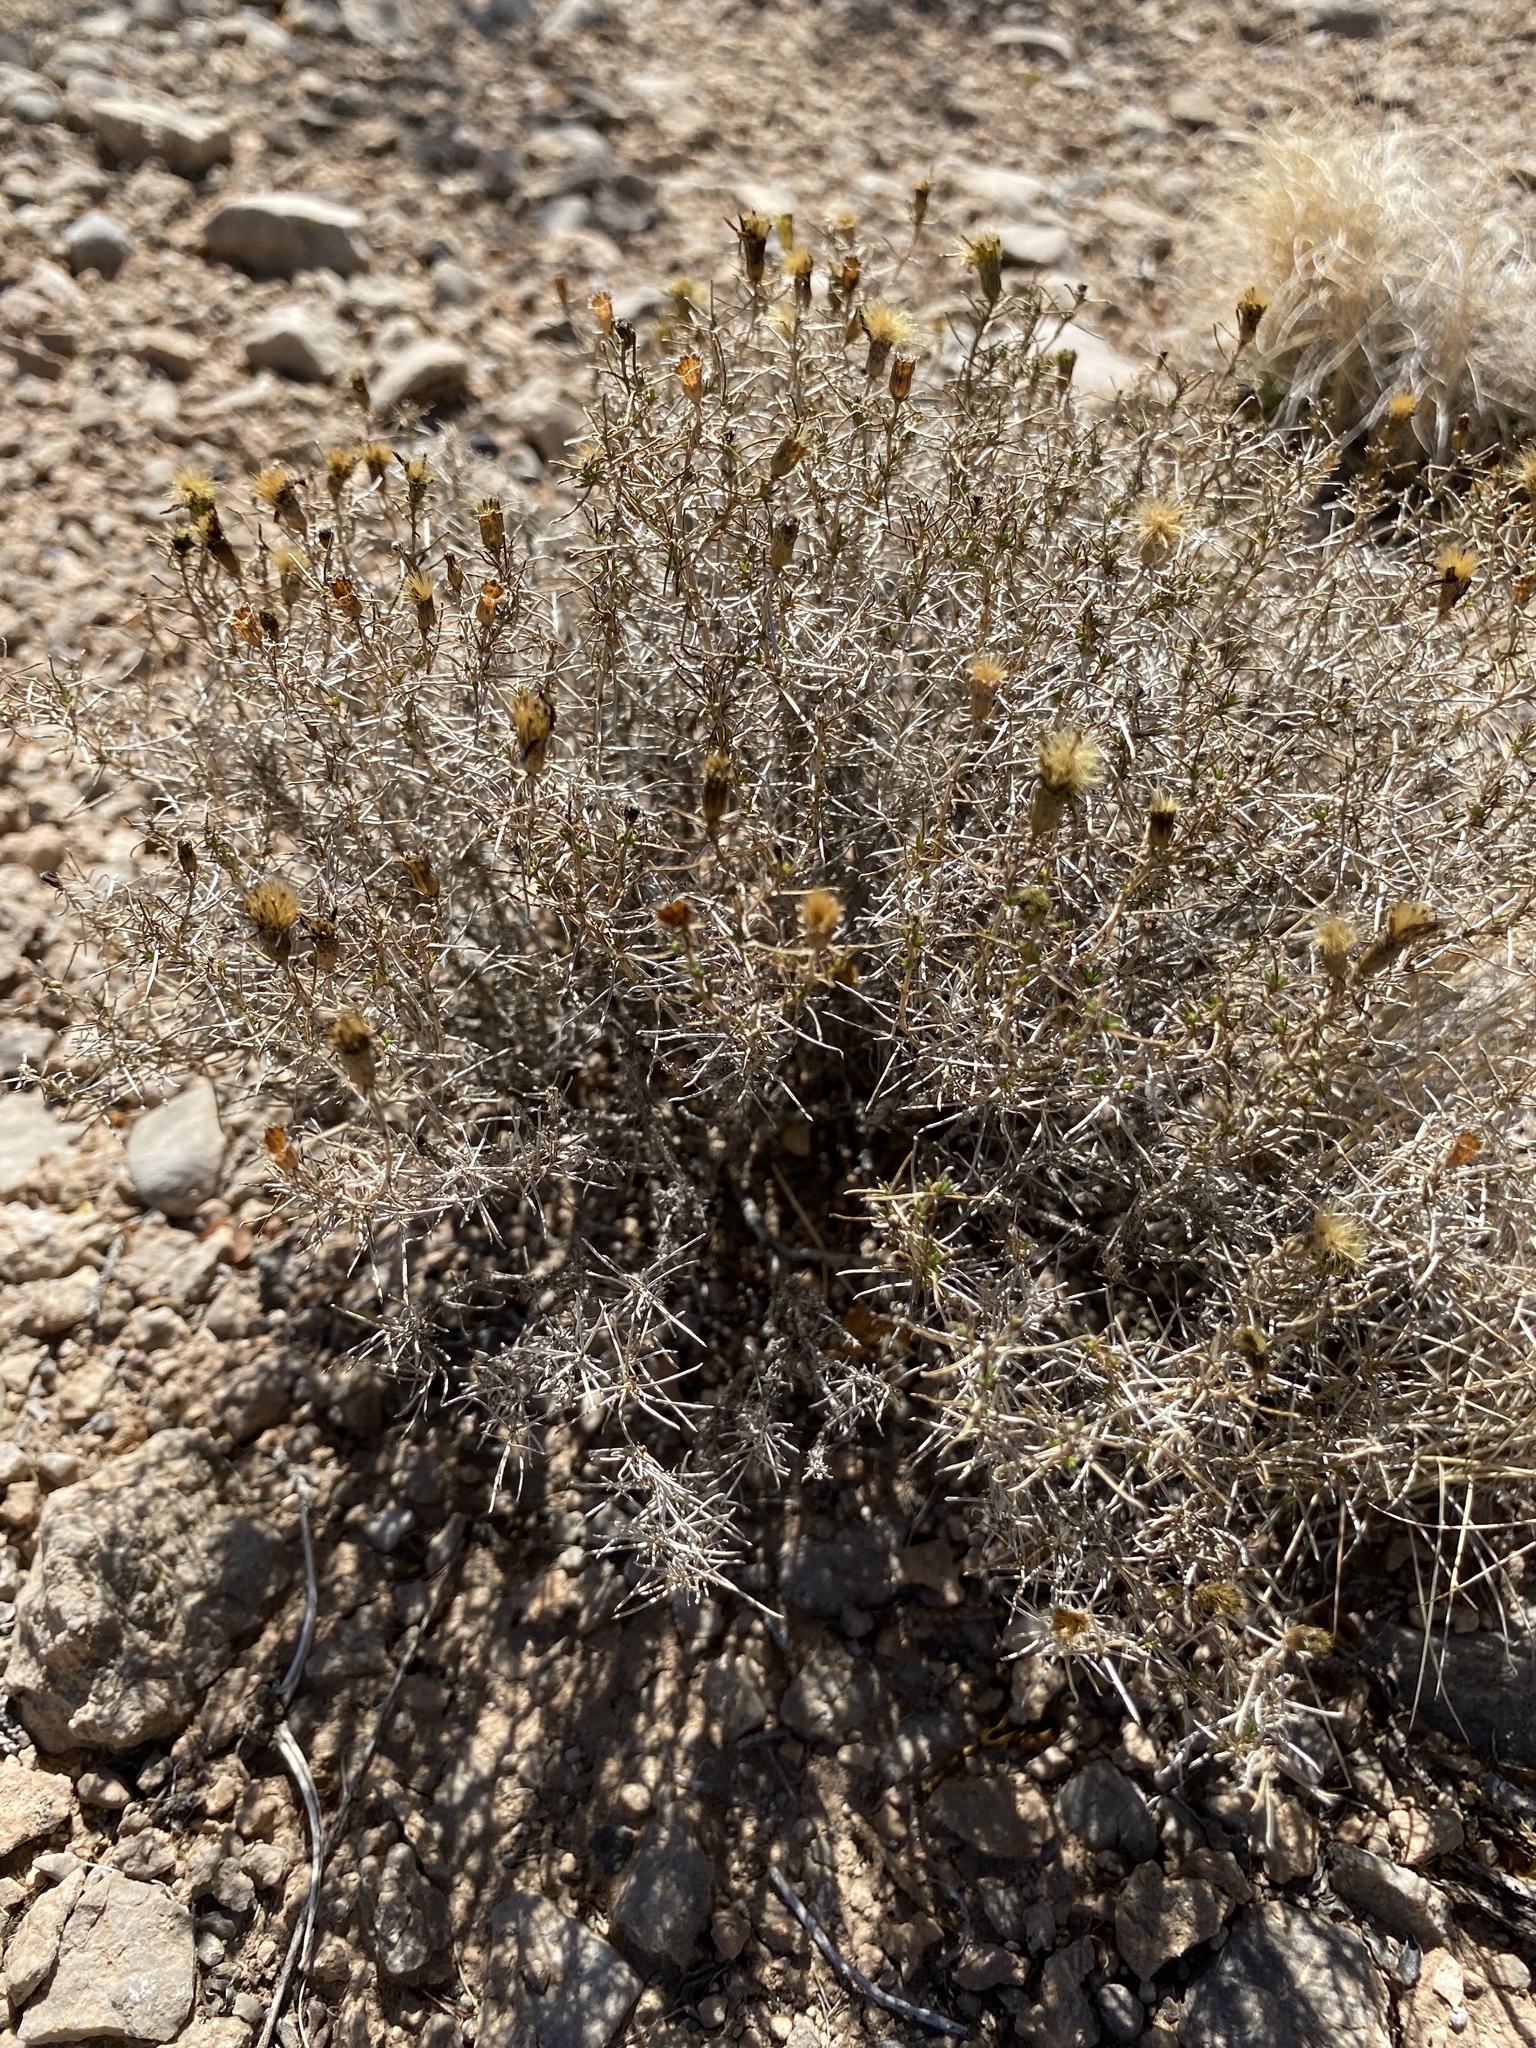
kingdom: Plantae
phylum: Tracheophyta
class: Magnoliopsida
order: Asterales
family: Asteraceae
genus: Thymophylla
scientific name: Thymophylla acerosa
